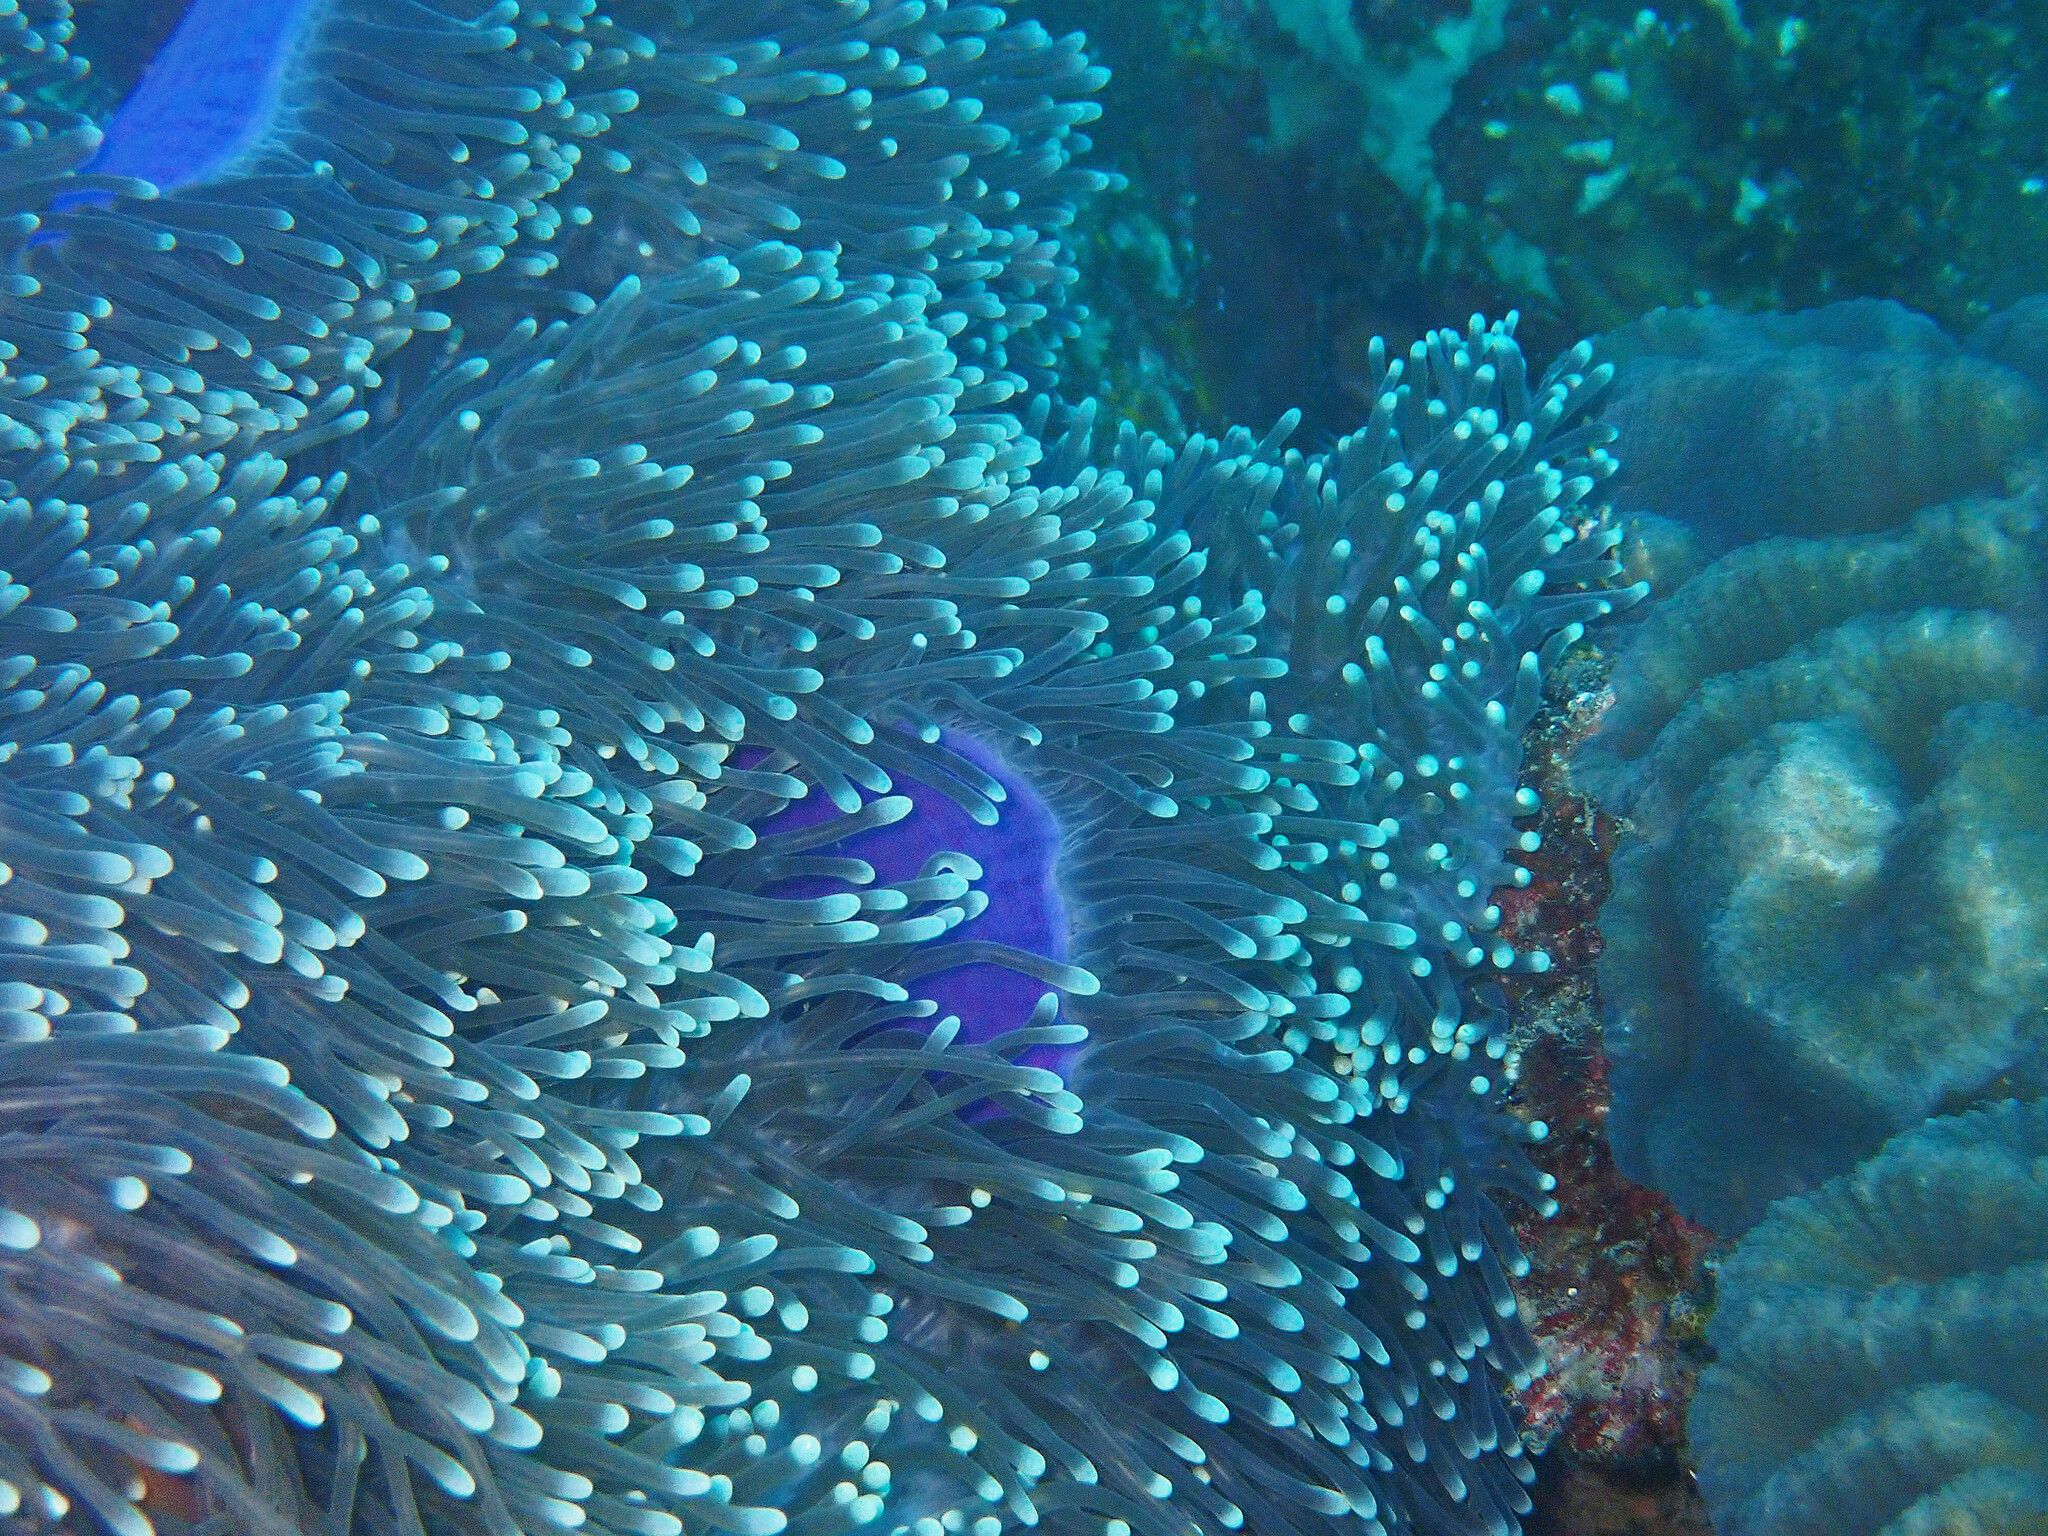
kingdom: Animalia
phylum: Cnidaria
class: Anthozoa
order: Actiniaria
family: Stichodactylidae
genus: Radianthus
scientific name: Radianthus magnifica
